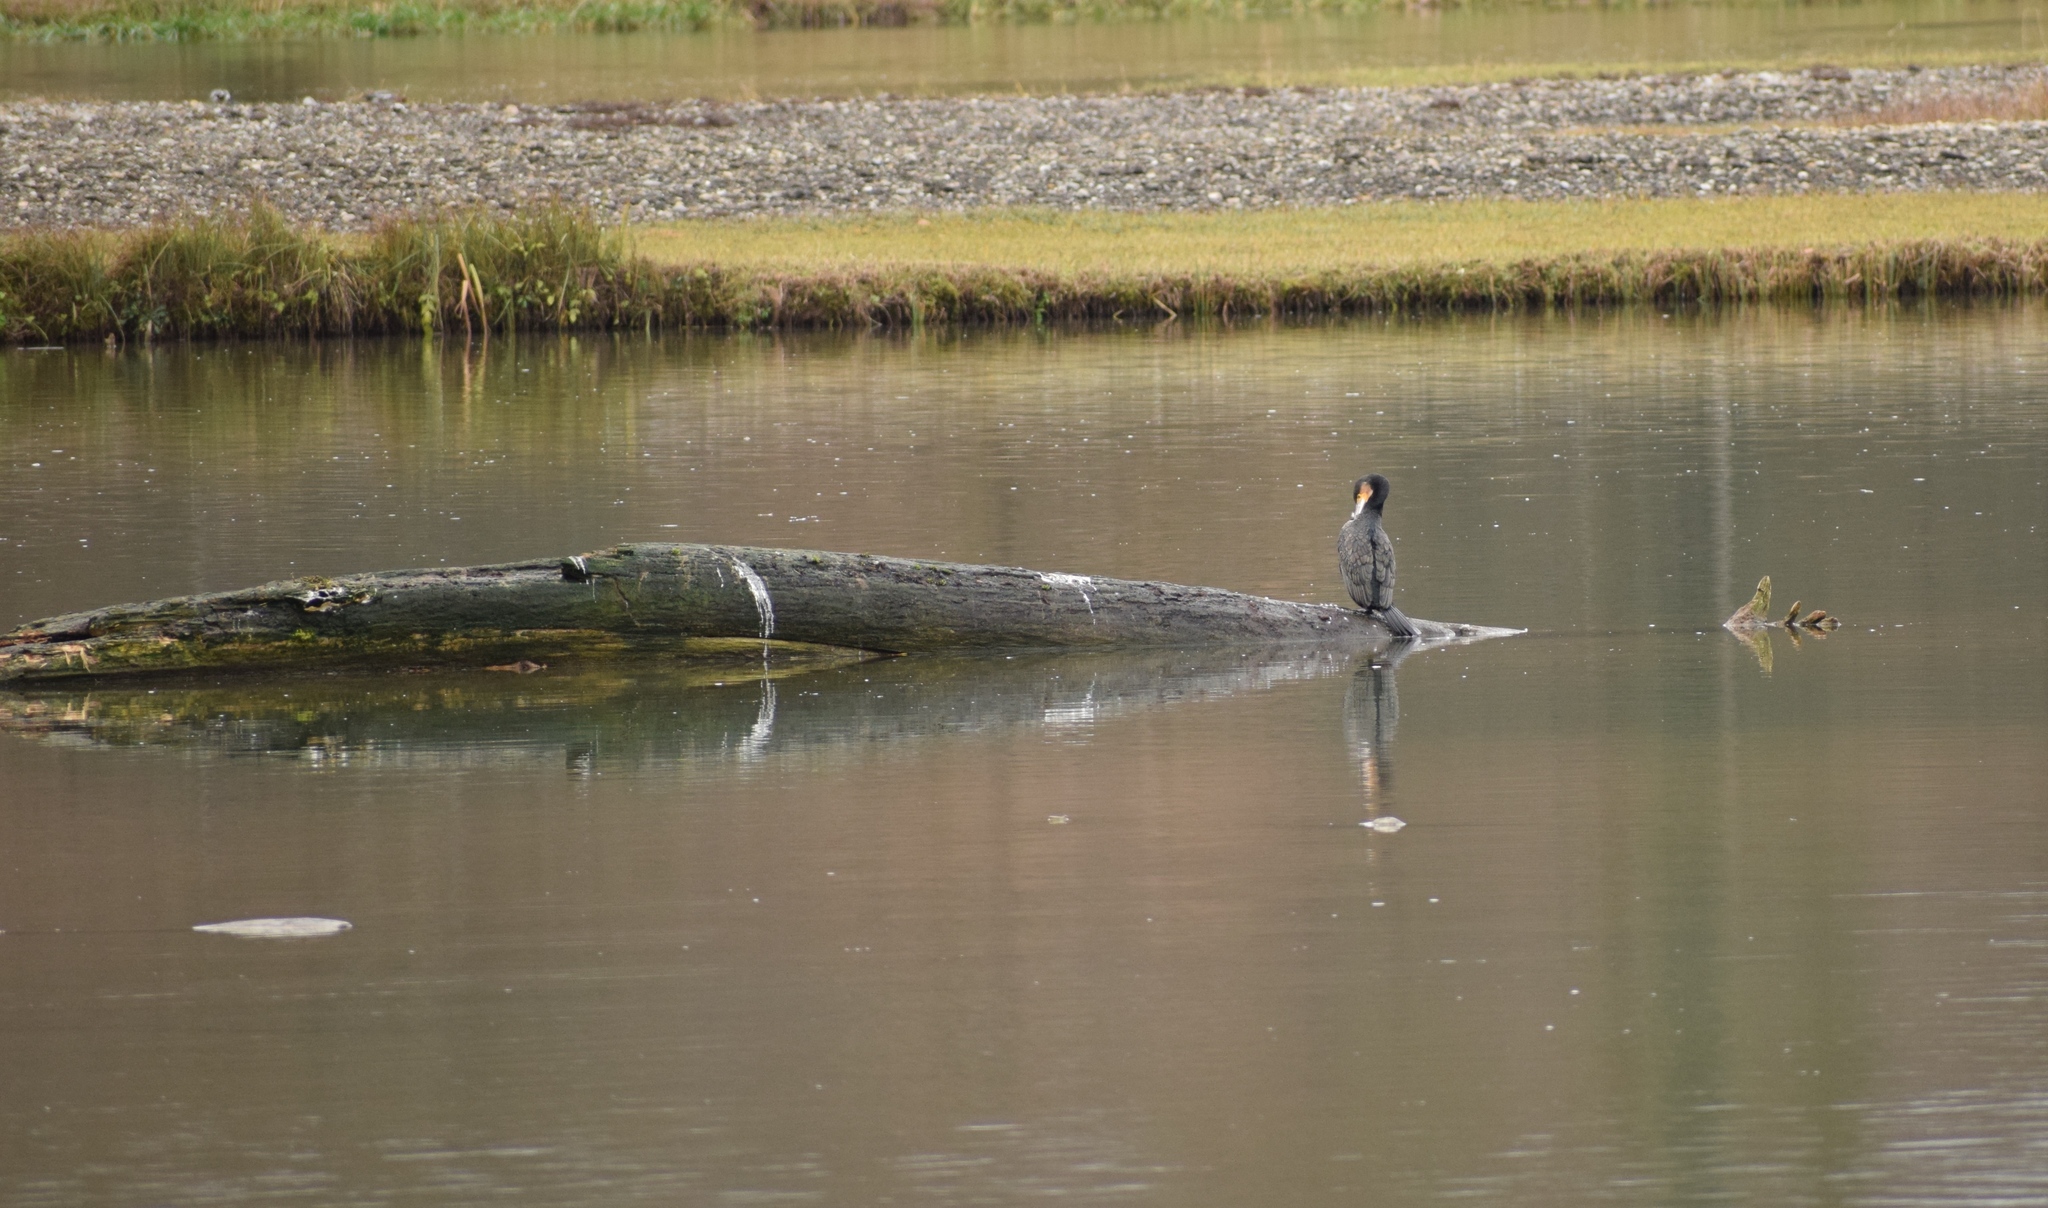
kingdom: Animalia
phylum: Chordata
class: Aves
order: Suliformes
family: Phalacrocoracidae
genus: Phalacrocorax
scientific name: Phalacrocorax carbo
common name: Great cormorant
